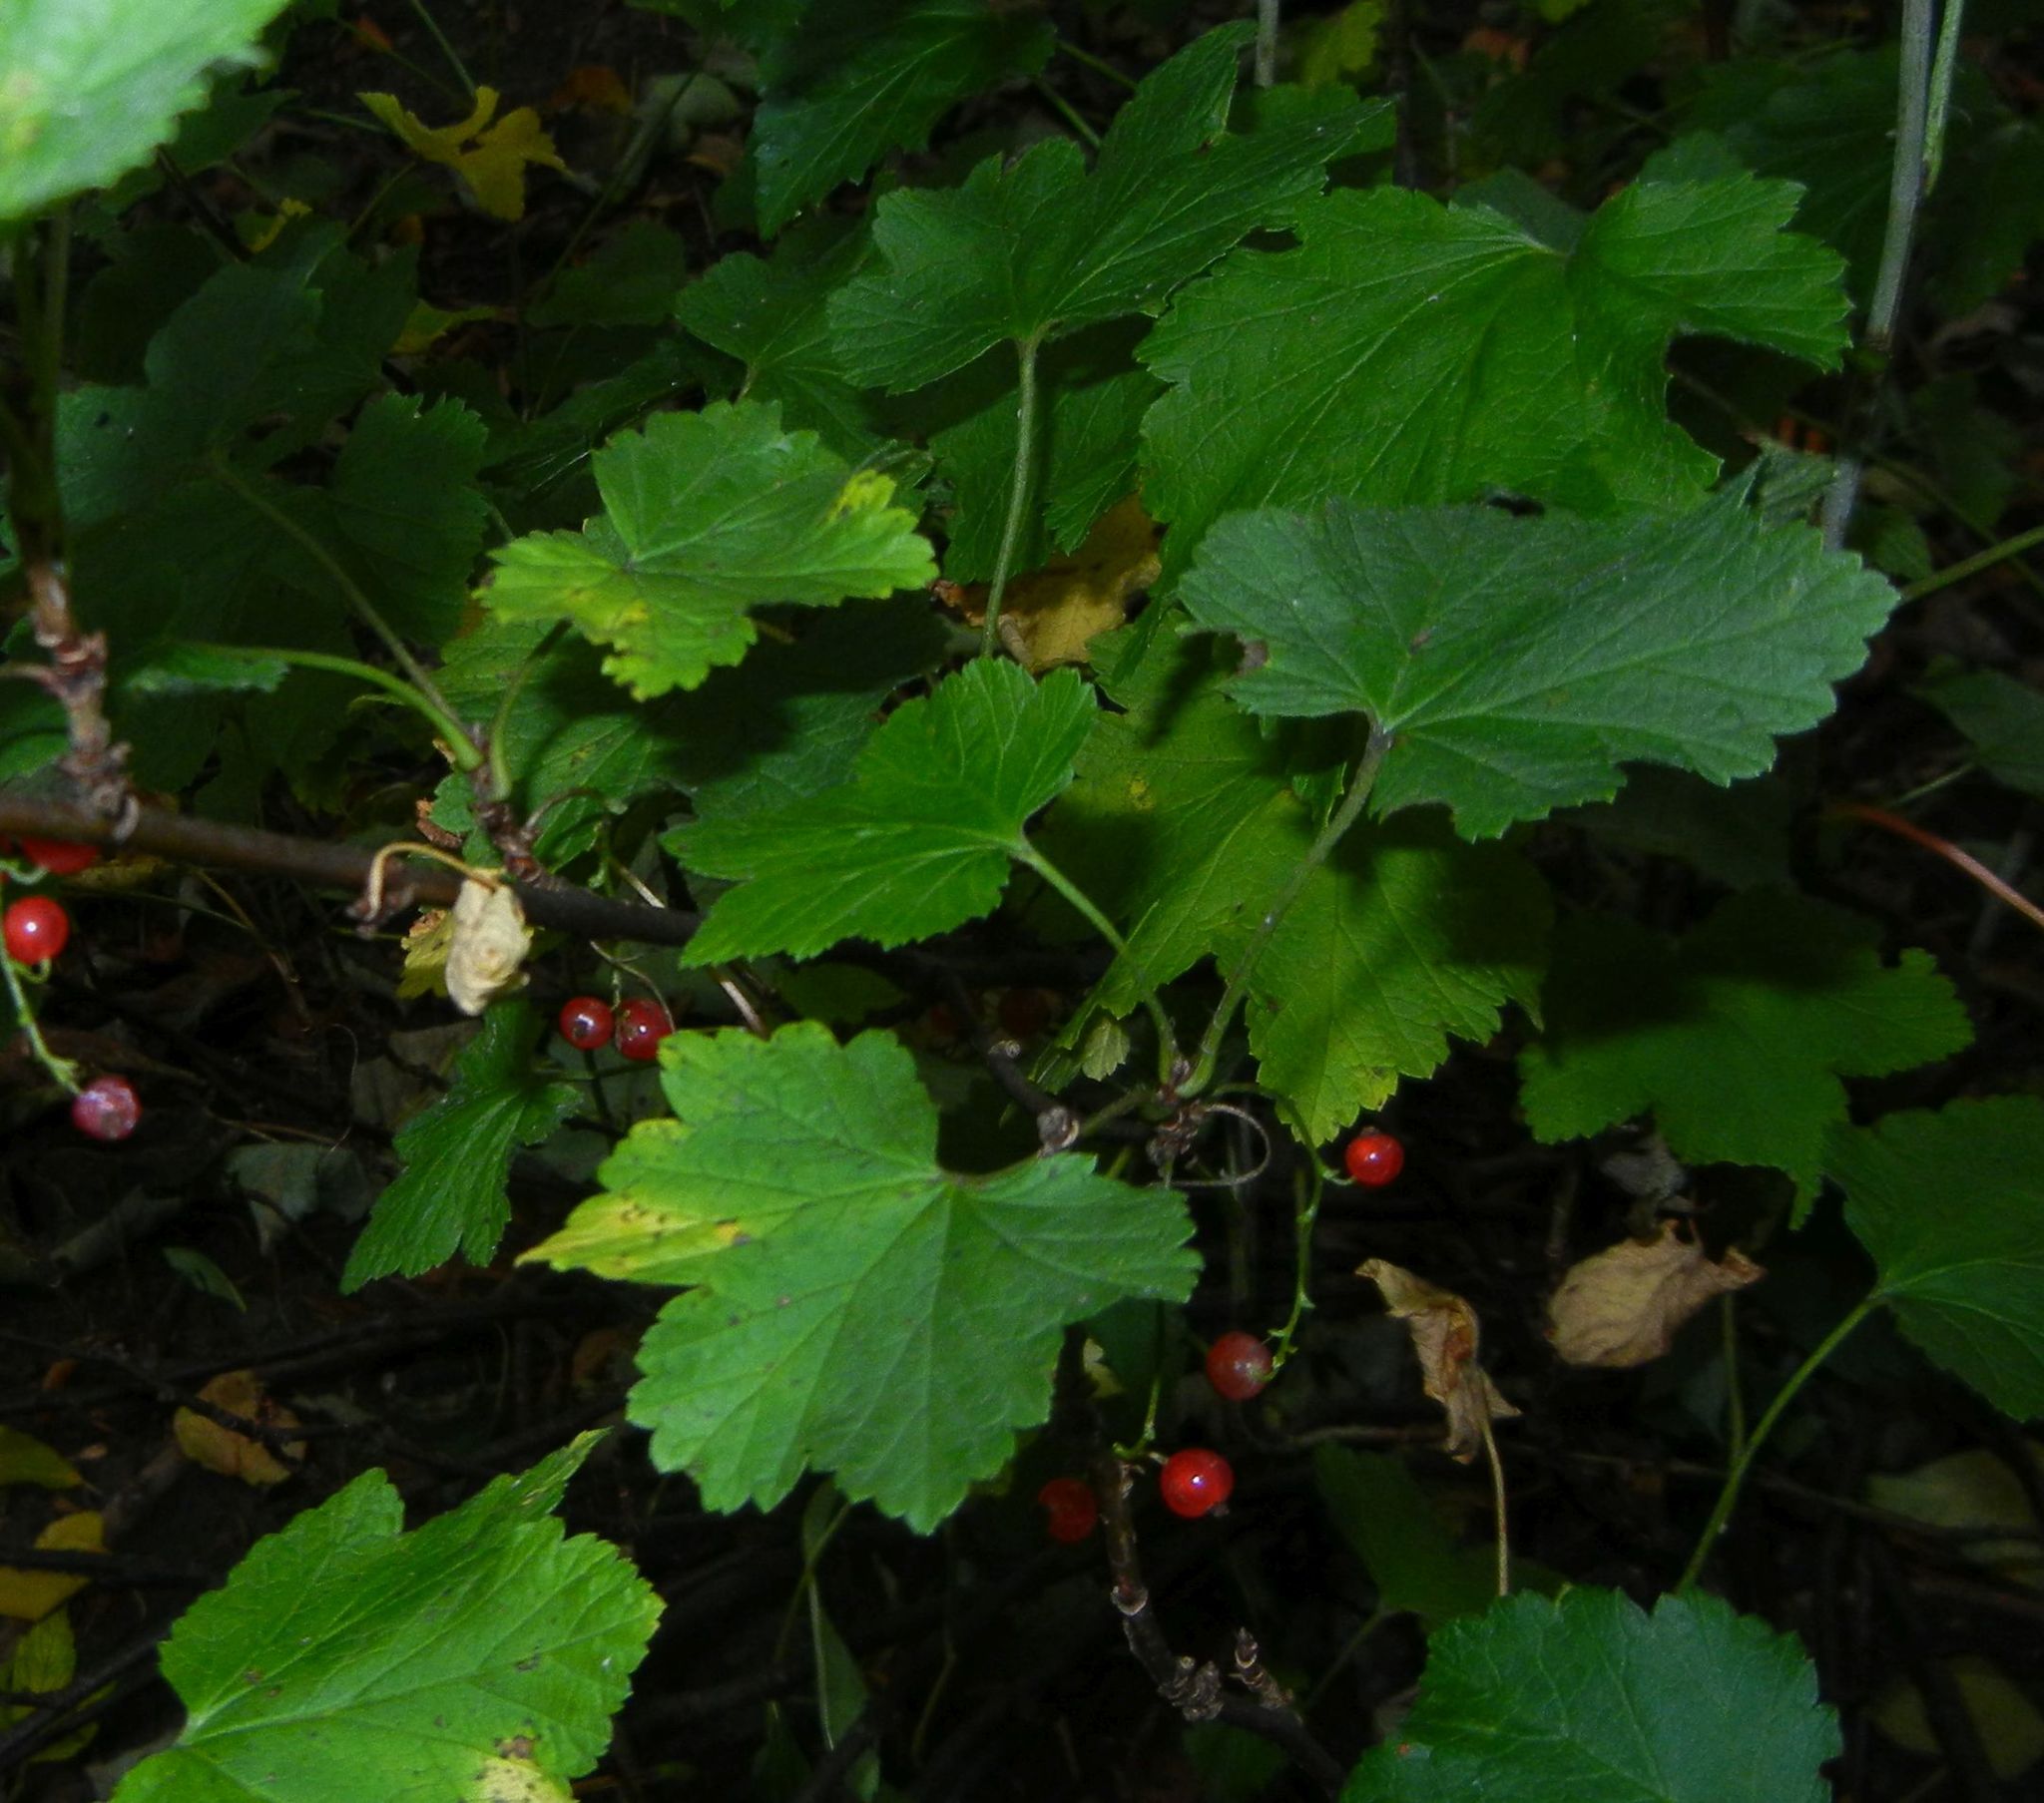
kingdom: Plantae
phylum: Tracheophyta
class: Magnoliopsida
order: Saxifragales
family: Grossulariaceae
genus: Ribes
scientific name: Ribes rubrum
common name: Red currant
